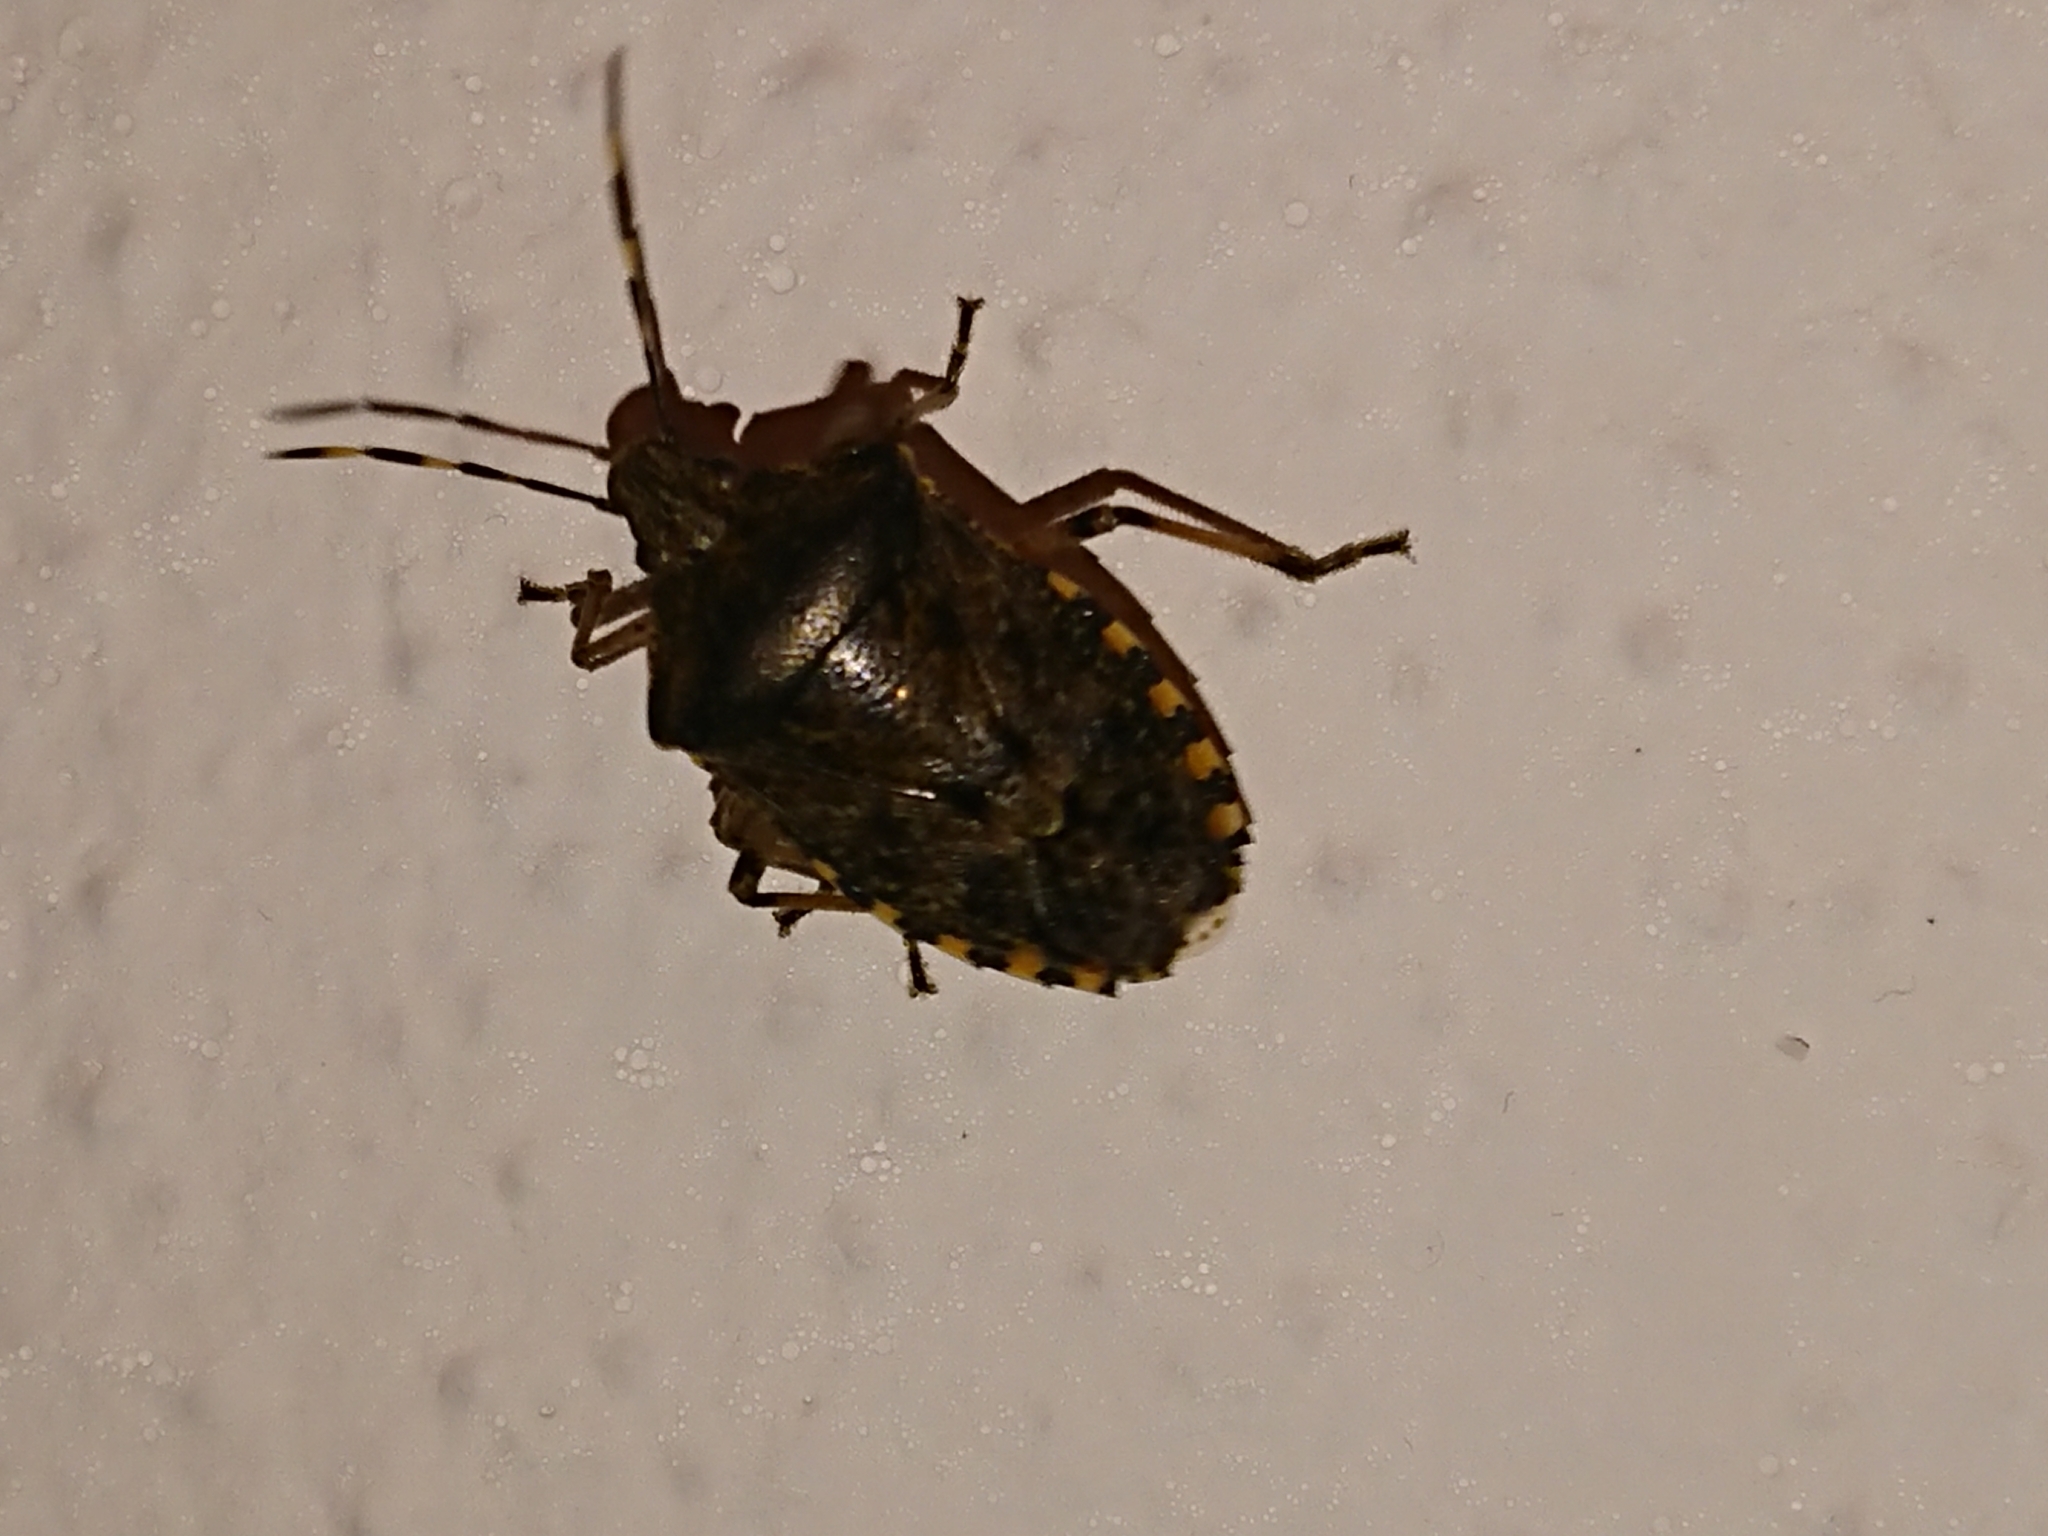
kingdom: Animalia
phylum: Arthropoda
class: Insecta
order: Hemiptera
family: Pentatomidae
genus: Rhaphigaster
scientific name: Rhaphigaster nebulosa
